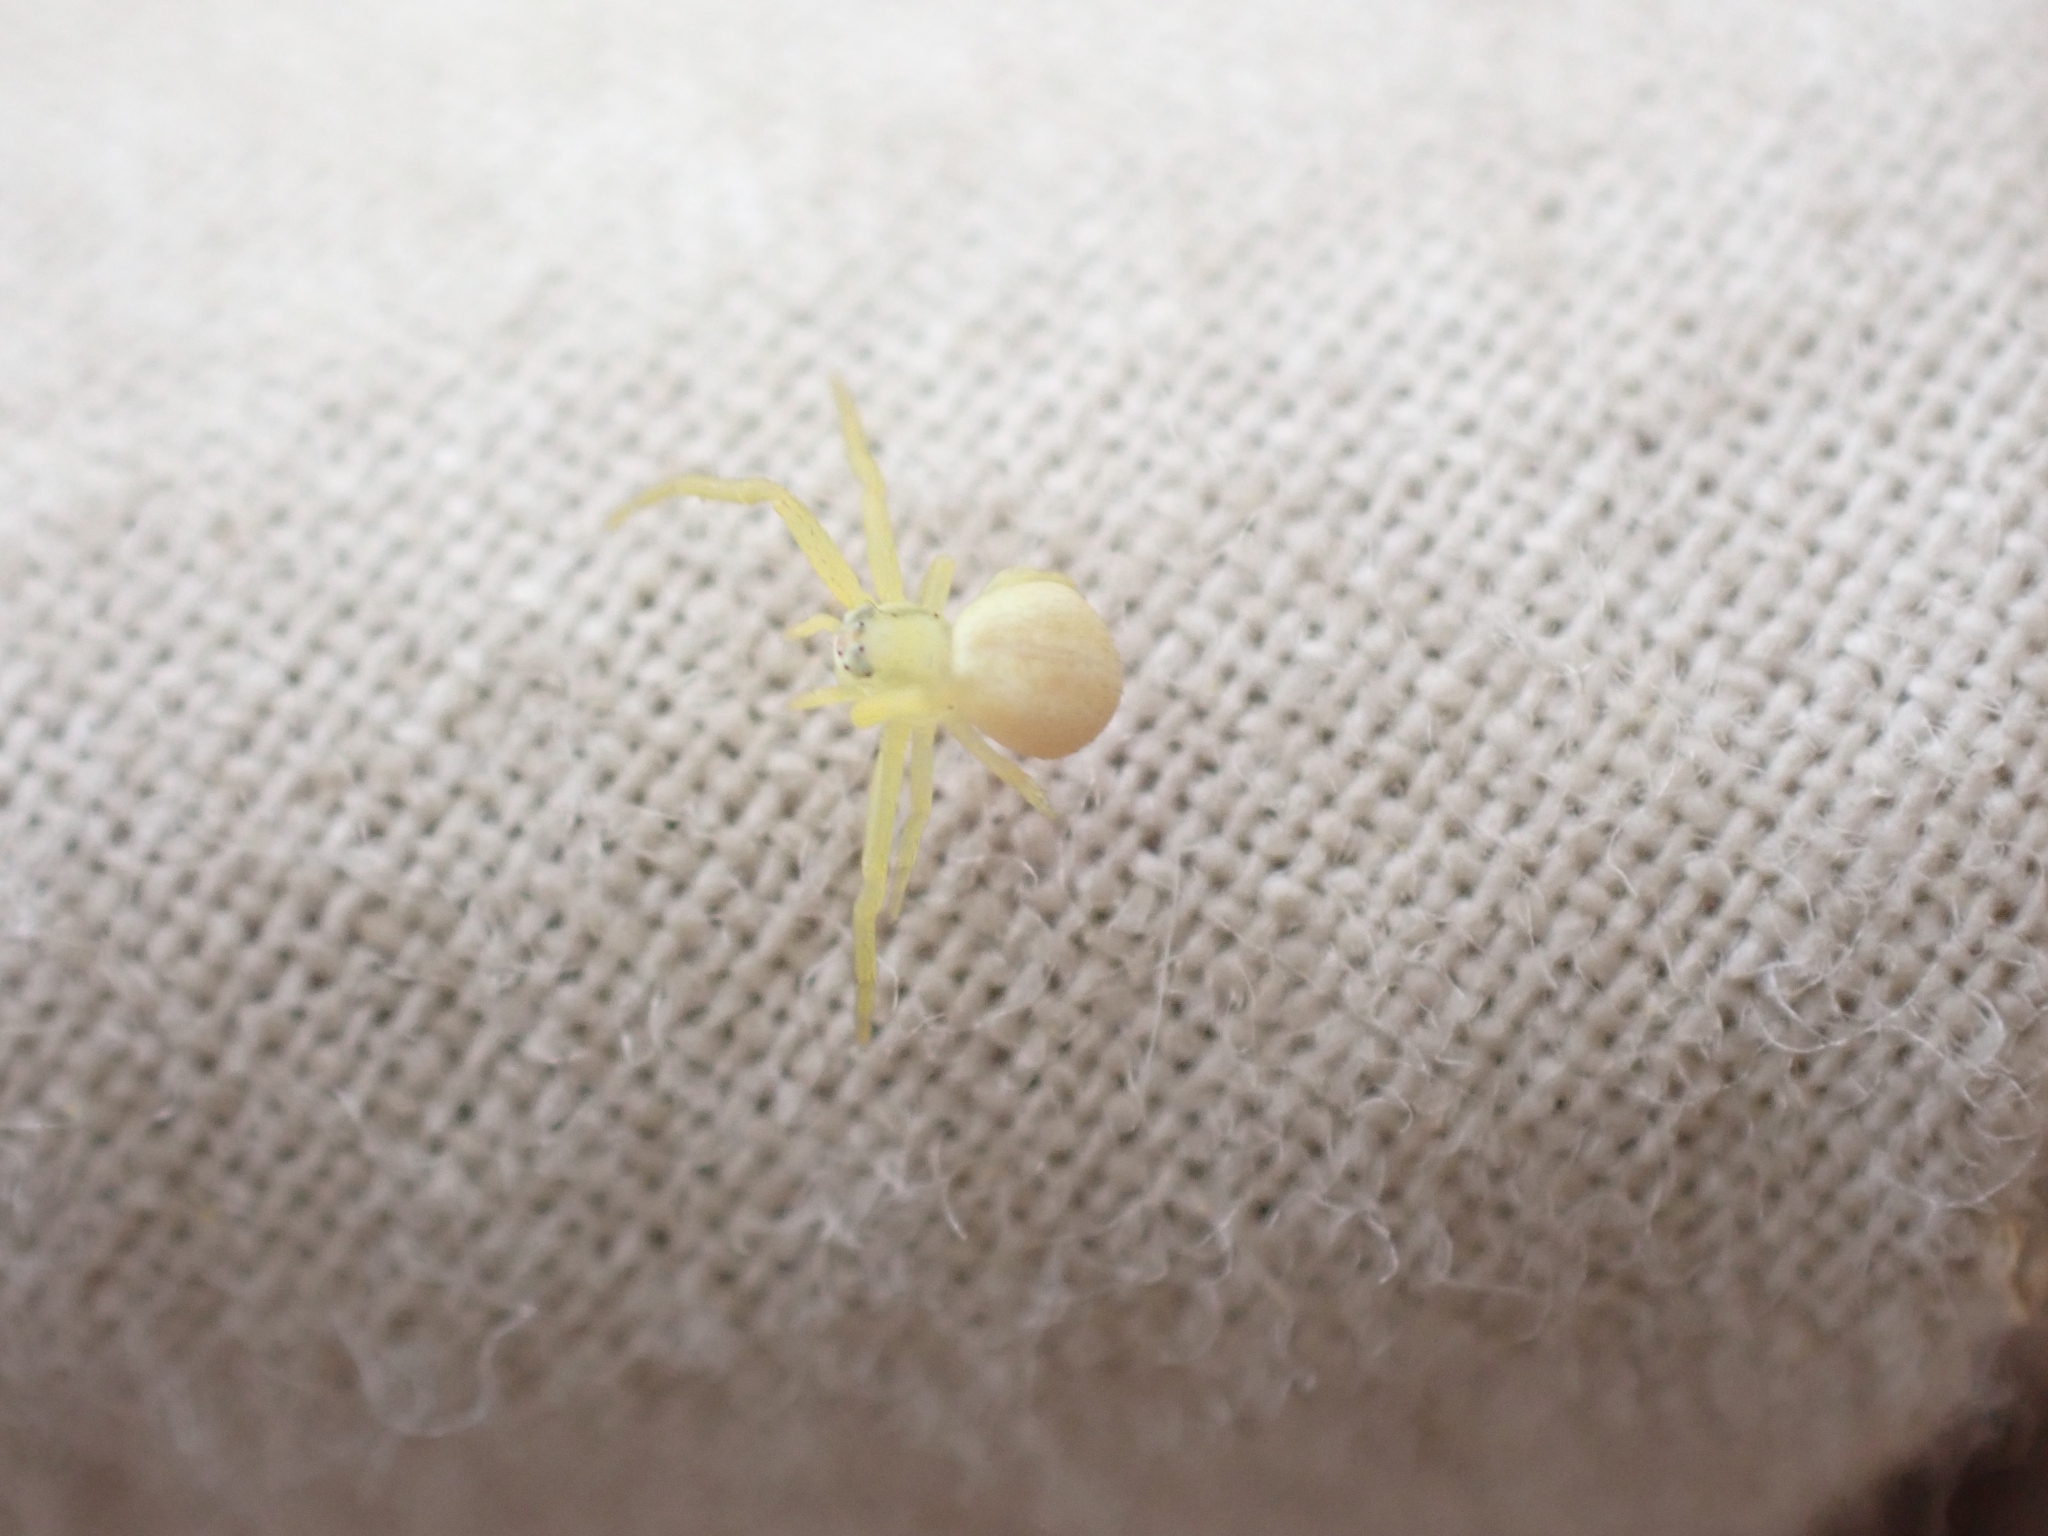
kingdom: Animalia
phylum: Arthropoda
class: Arachnida
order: Araneae
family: Thomisidae
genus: Misumena
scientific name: Misumena vatia
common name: Goldenrod crab spider
